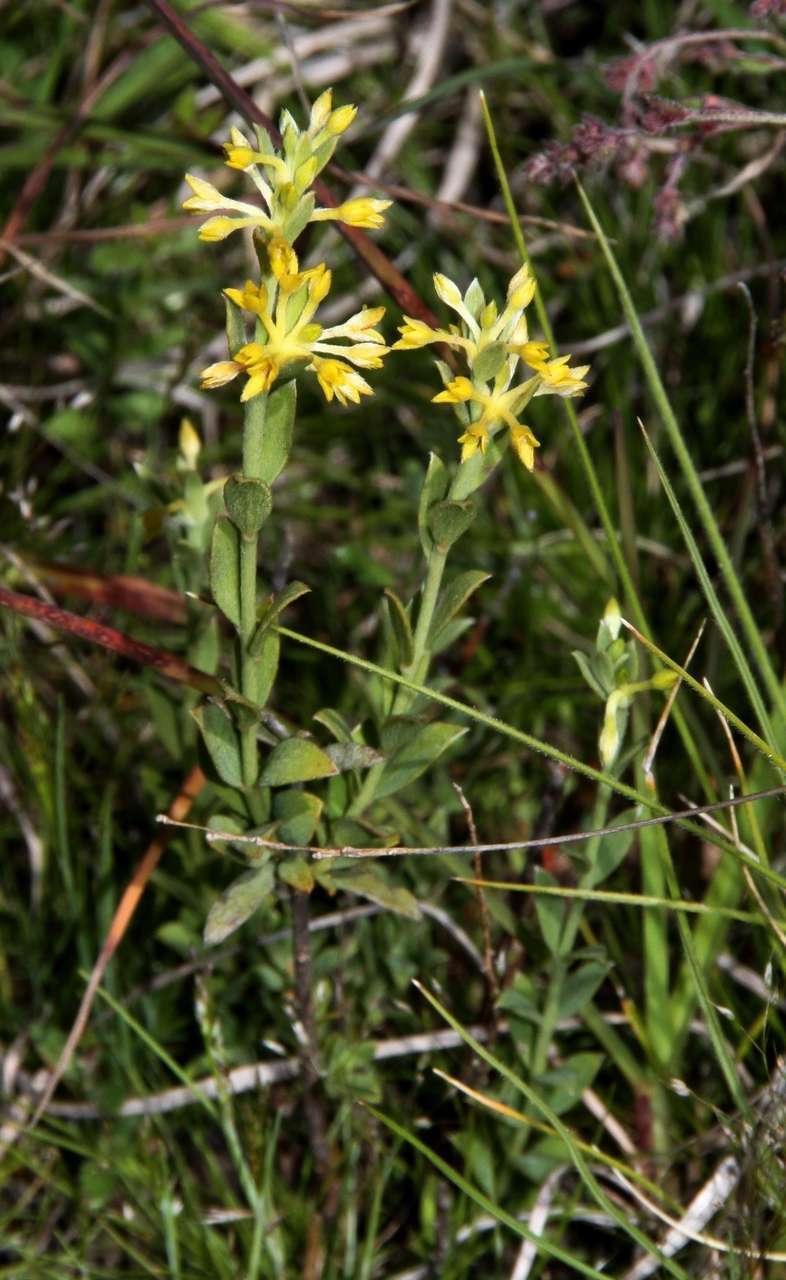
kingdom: Plantae
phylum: Tracheophyta
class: Magnoliopsida
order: Malvales
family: Thymelaeaceae
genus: Pimelea
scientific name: Pimelea curviflora
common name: Curved riceflower
